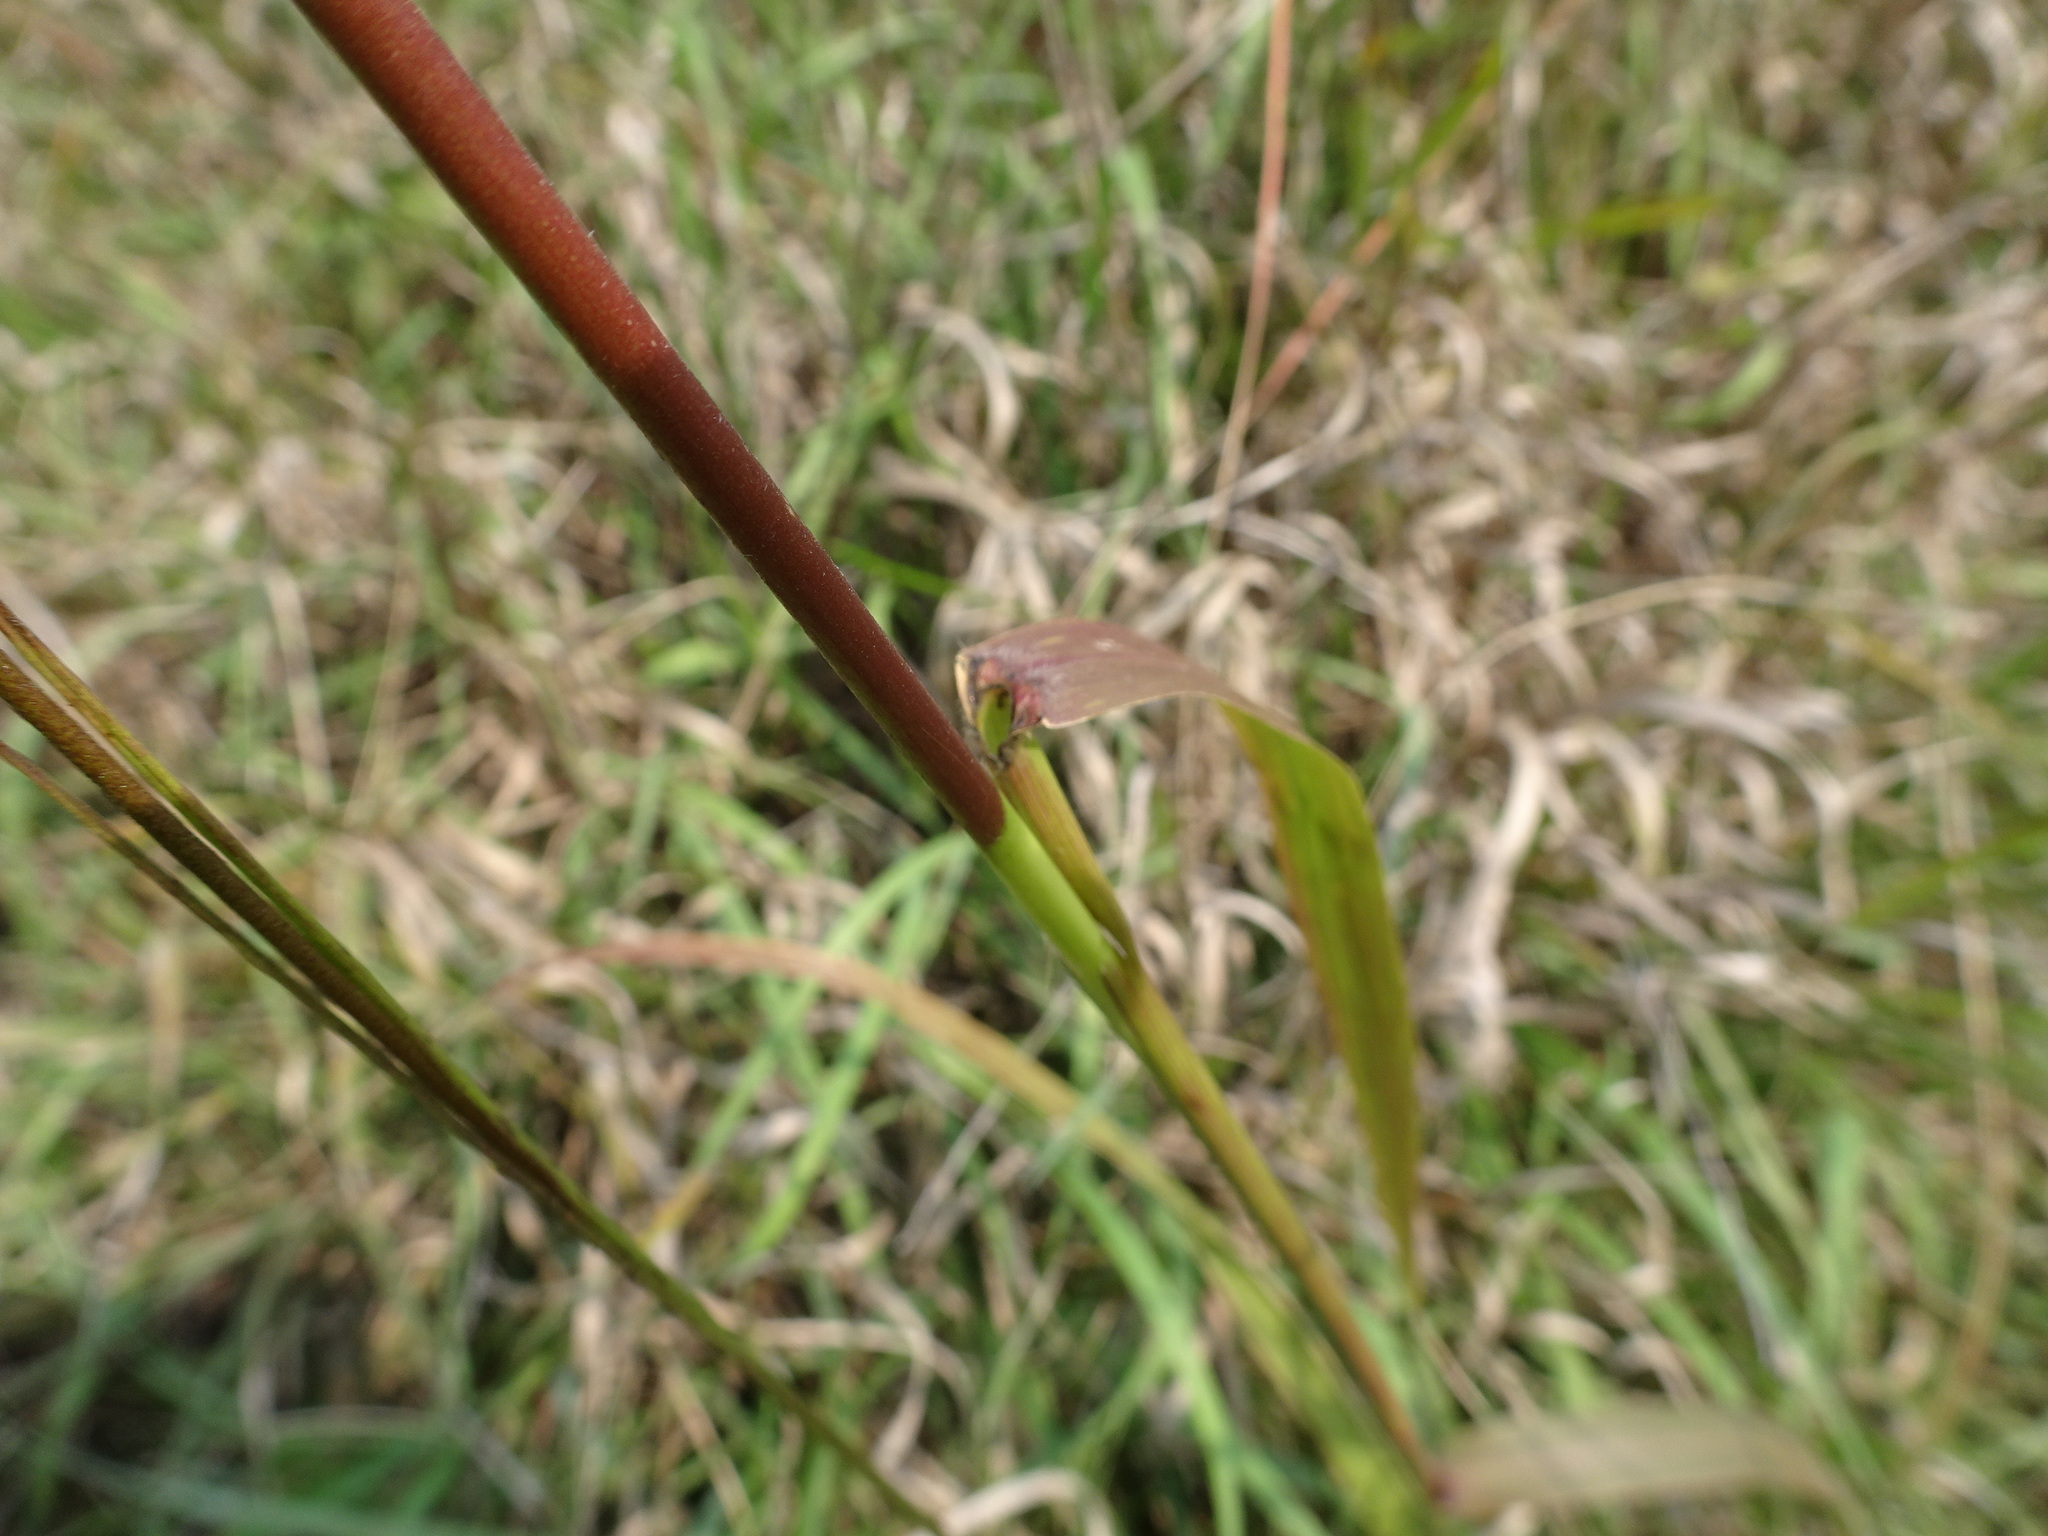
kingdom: Plantae
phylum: Tracheophyta
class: Liliopsida
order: Poales
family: Poaceae
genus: Tridens
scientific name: Tridens flavus
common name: Purpletop
